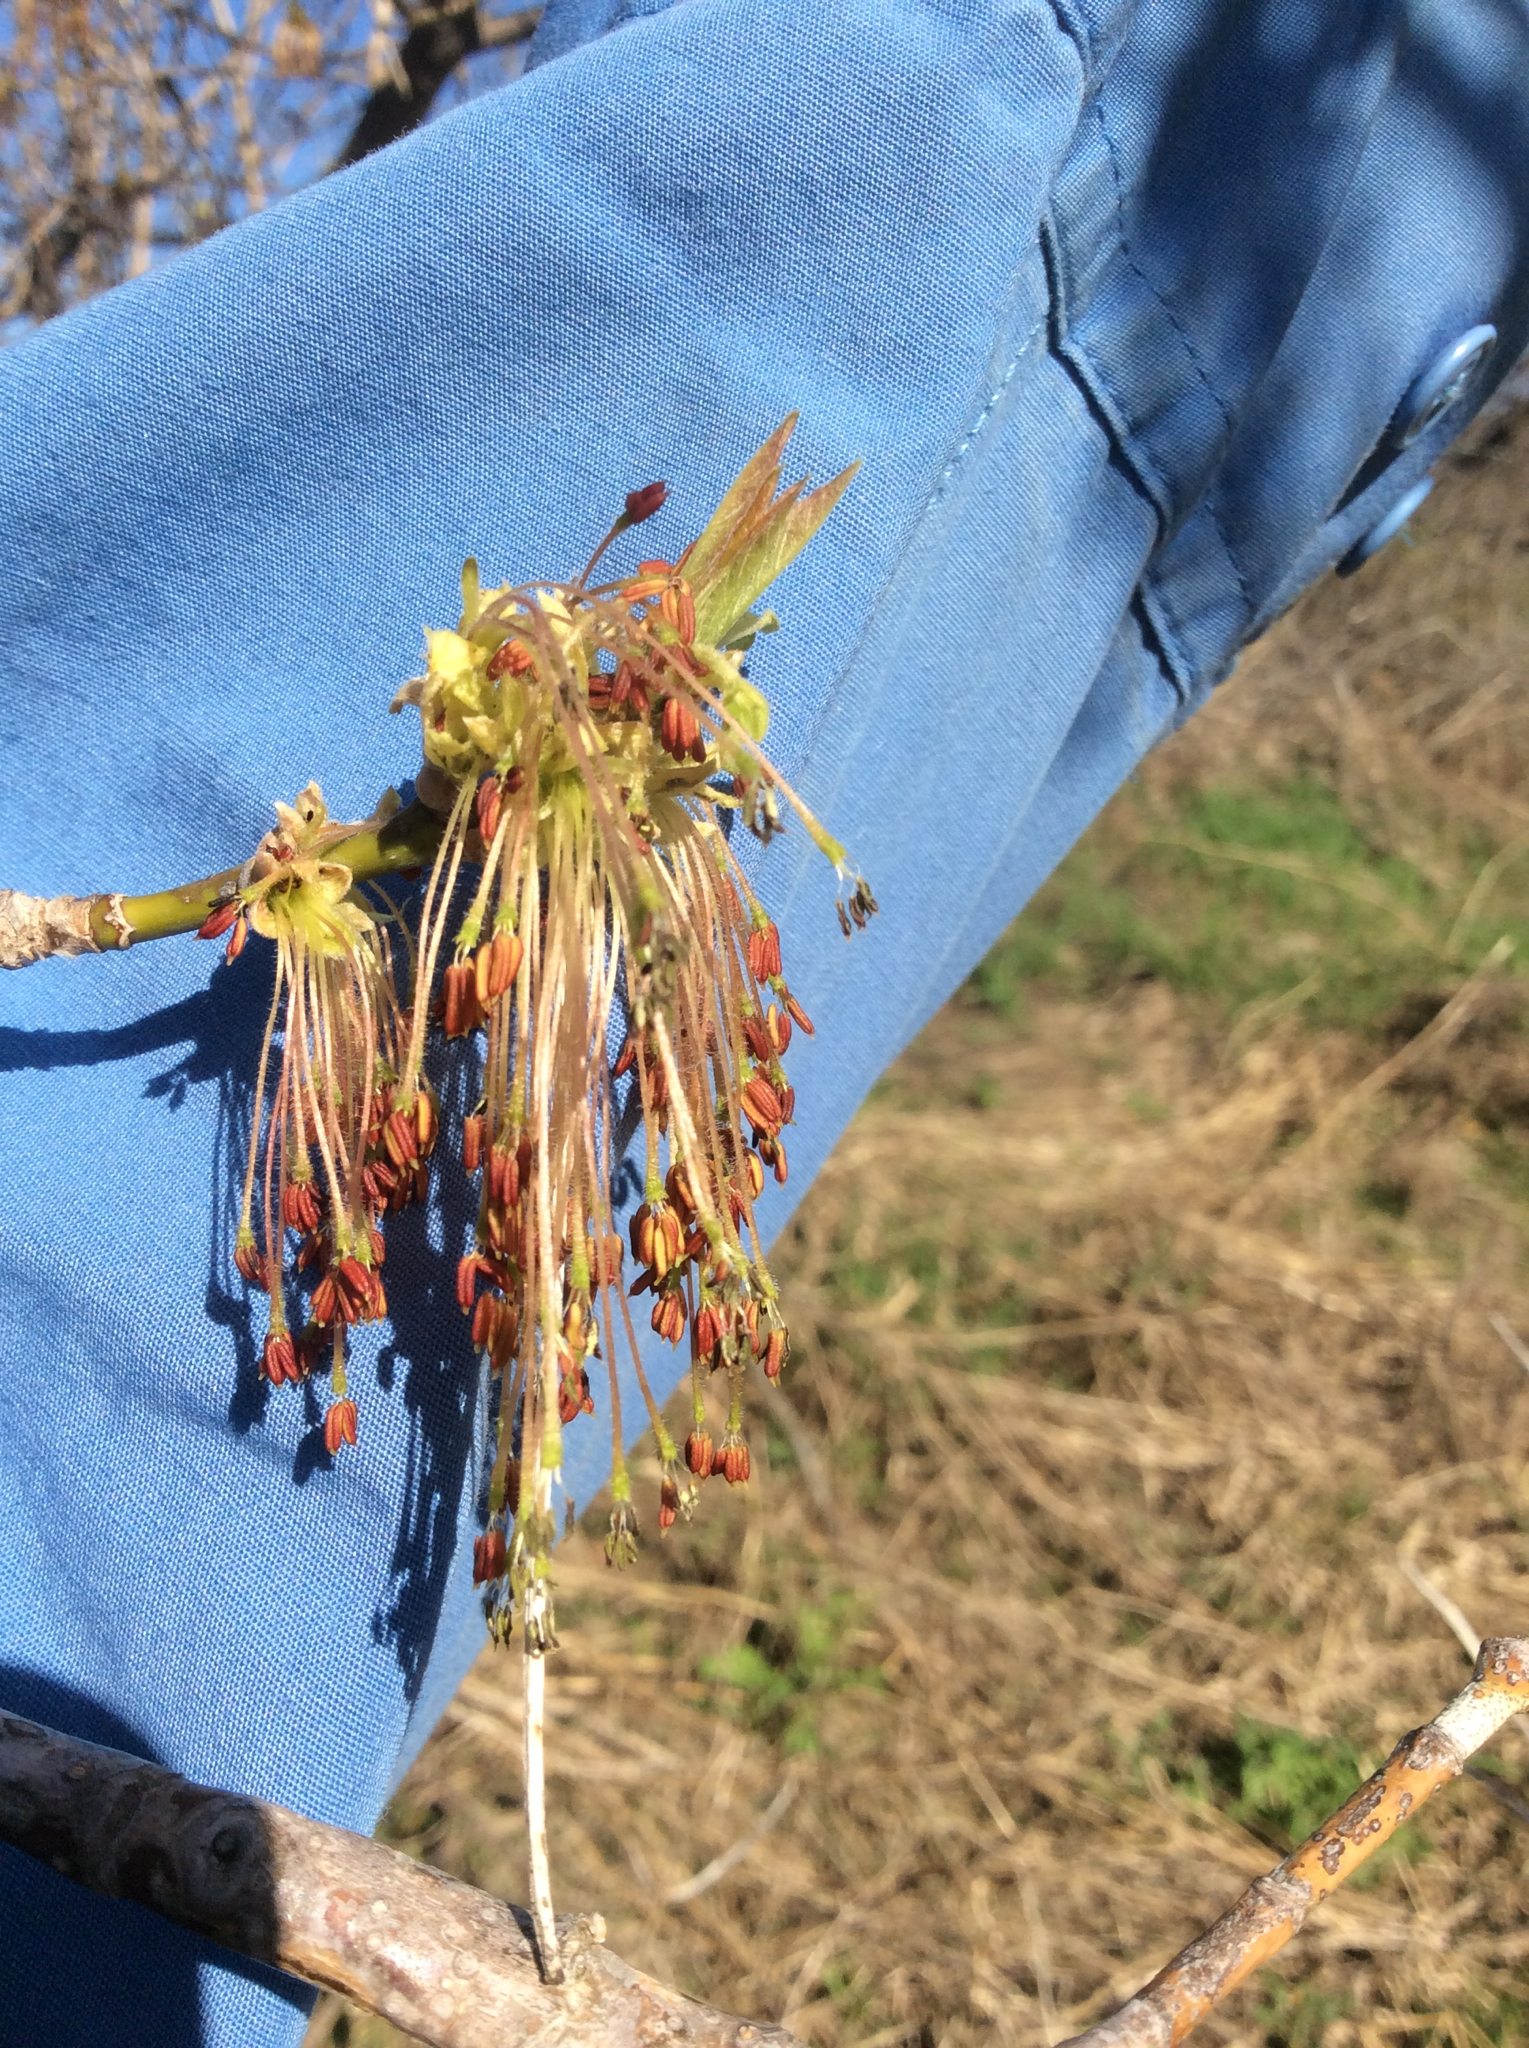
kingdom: Plantae
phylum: Tracheophyta
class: Magnoliopsida
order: Sapindales
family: Sapindaceae
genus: Acer
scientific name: Acer negundo
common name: Ashleaf maple
